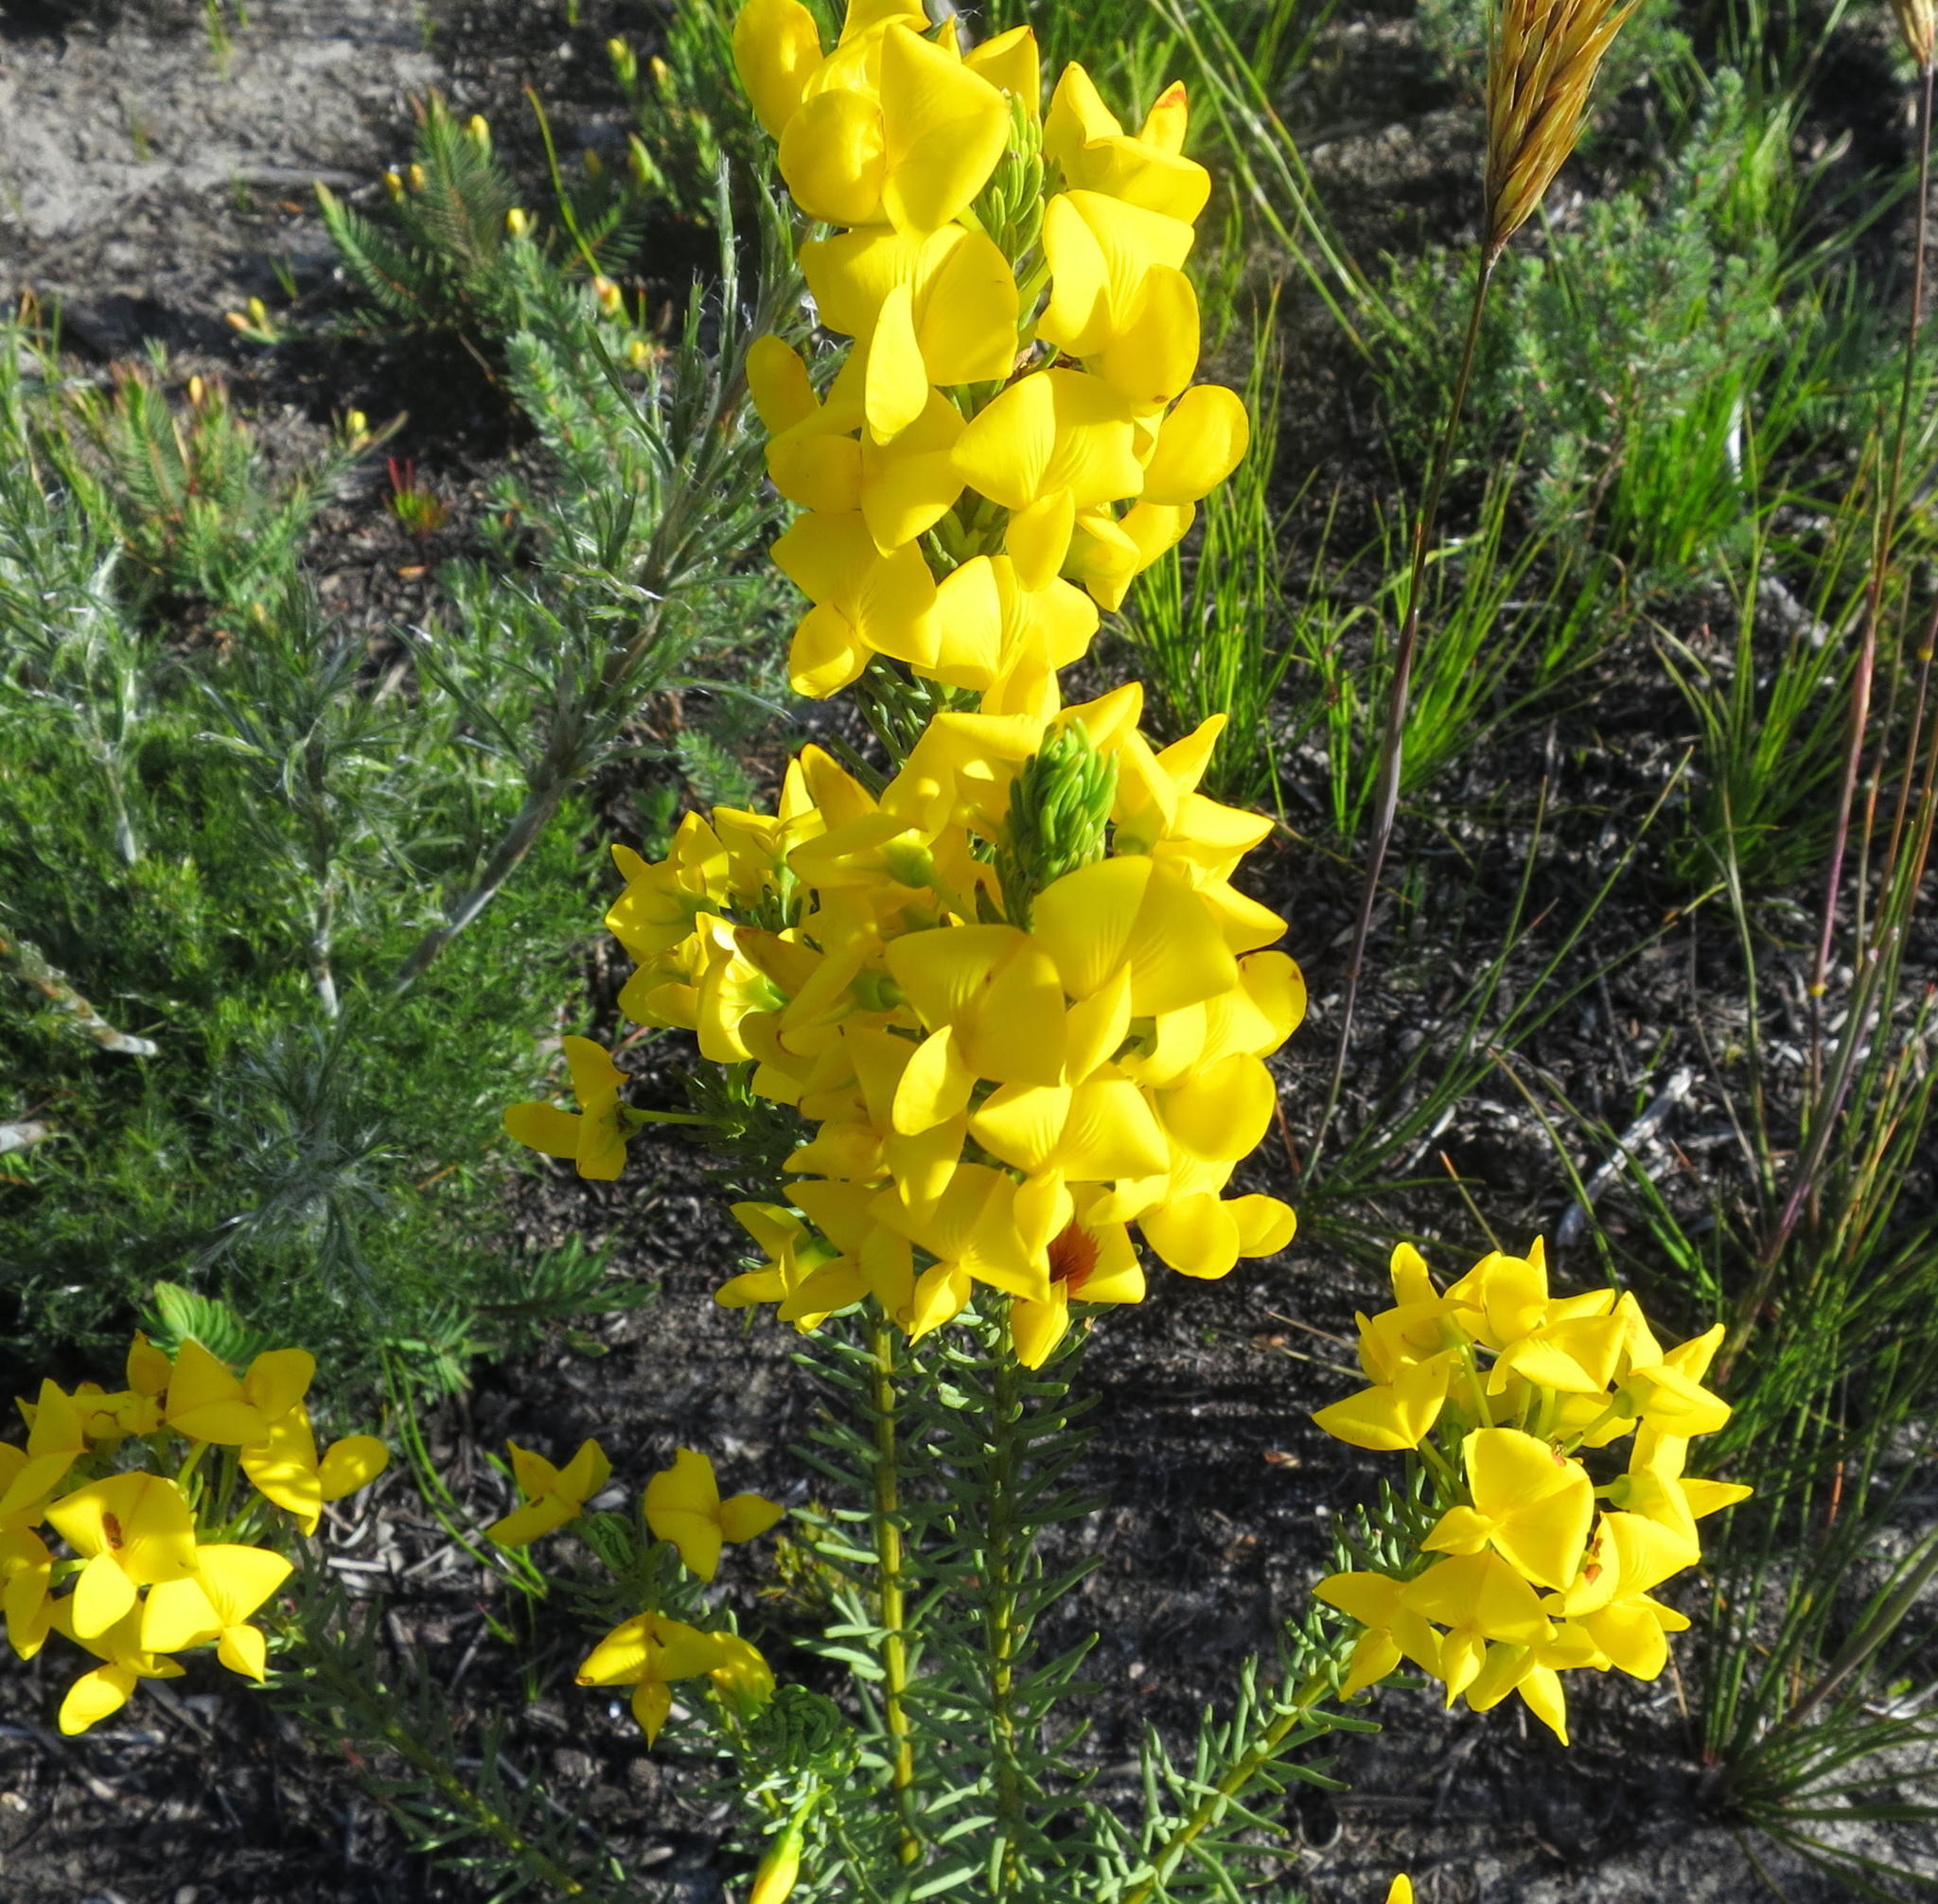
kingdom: Plantae
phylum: Tracheophyta
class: Magnoliopsida
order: Fabales
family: Fabaceae
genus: Cyclopia
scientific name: Cyclopia genistoides
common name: Honeybush tea
